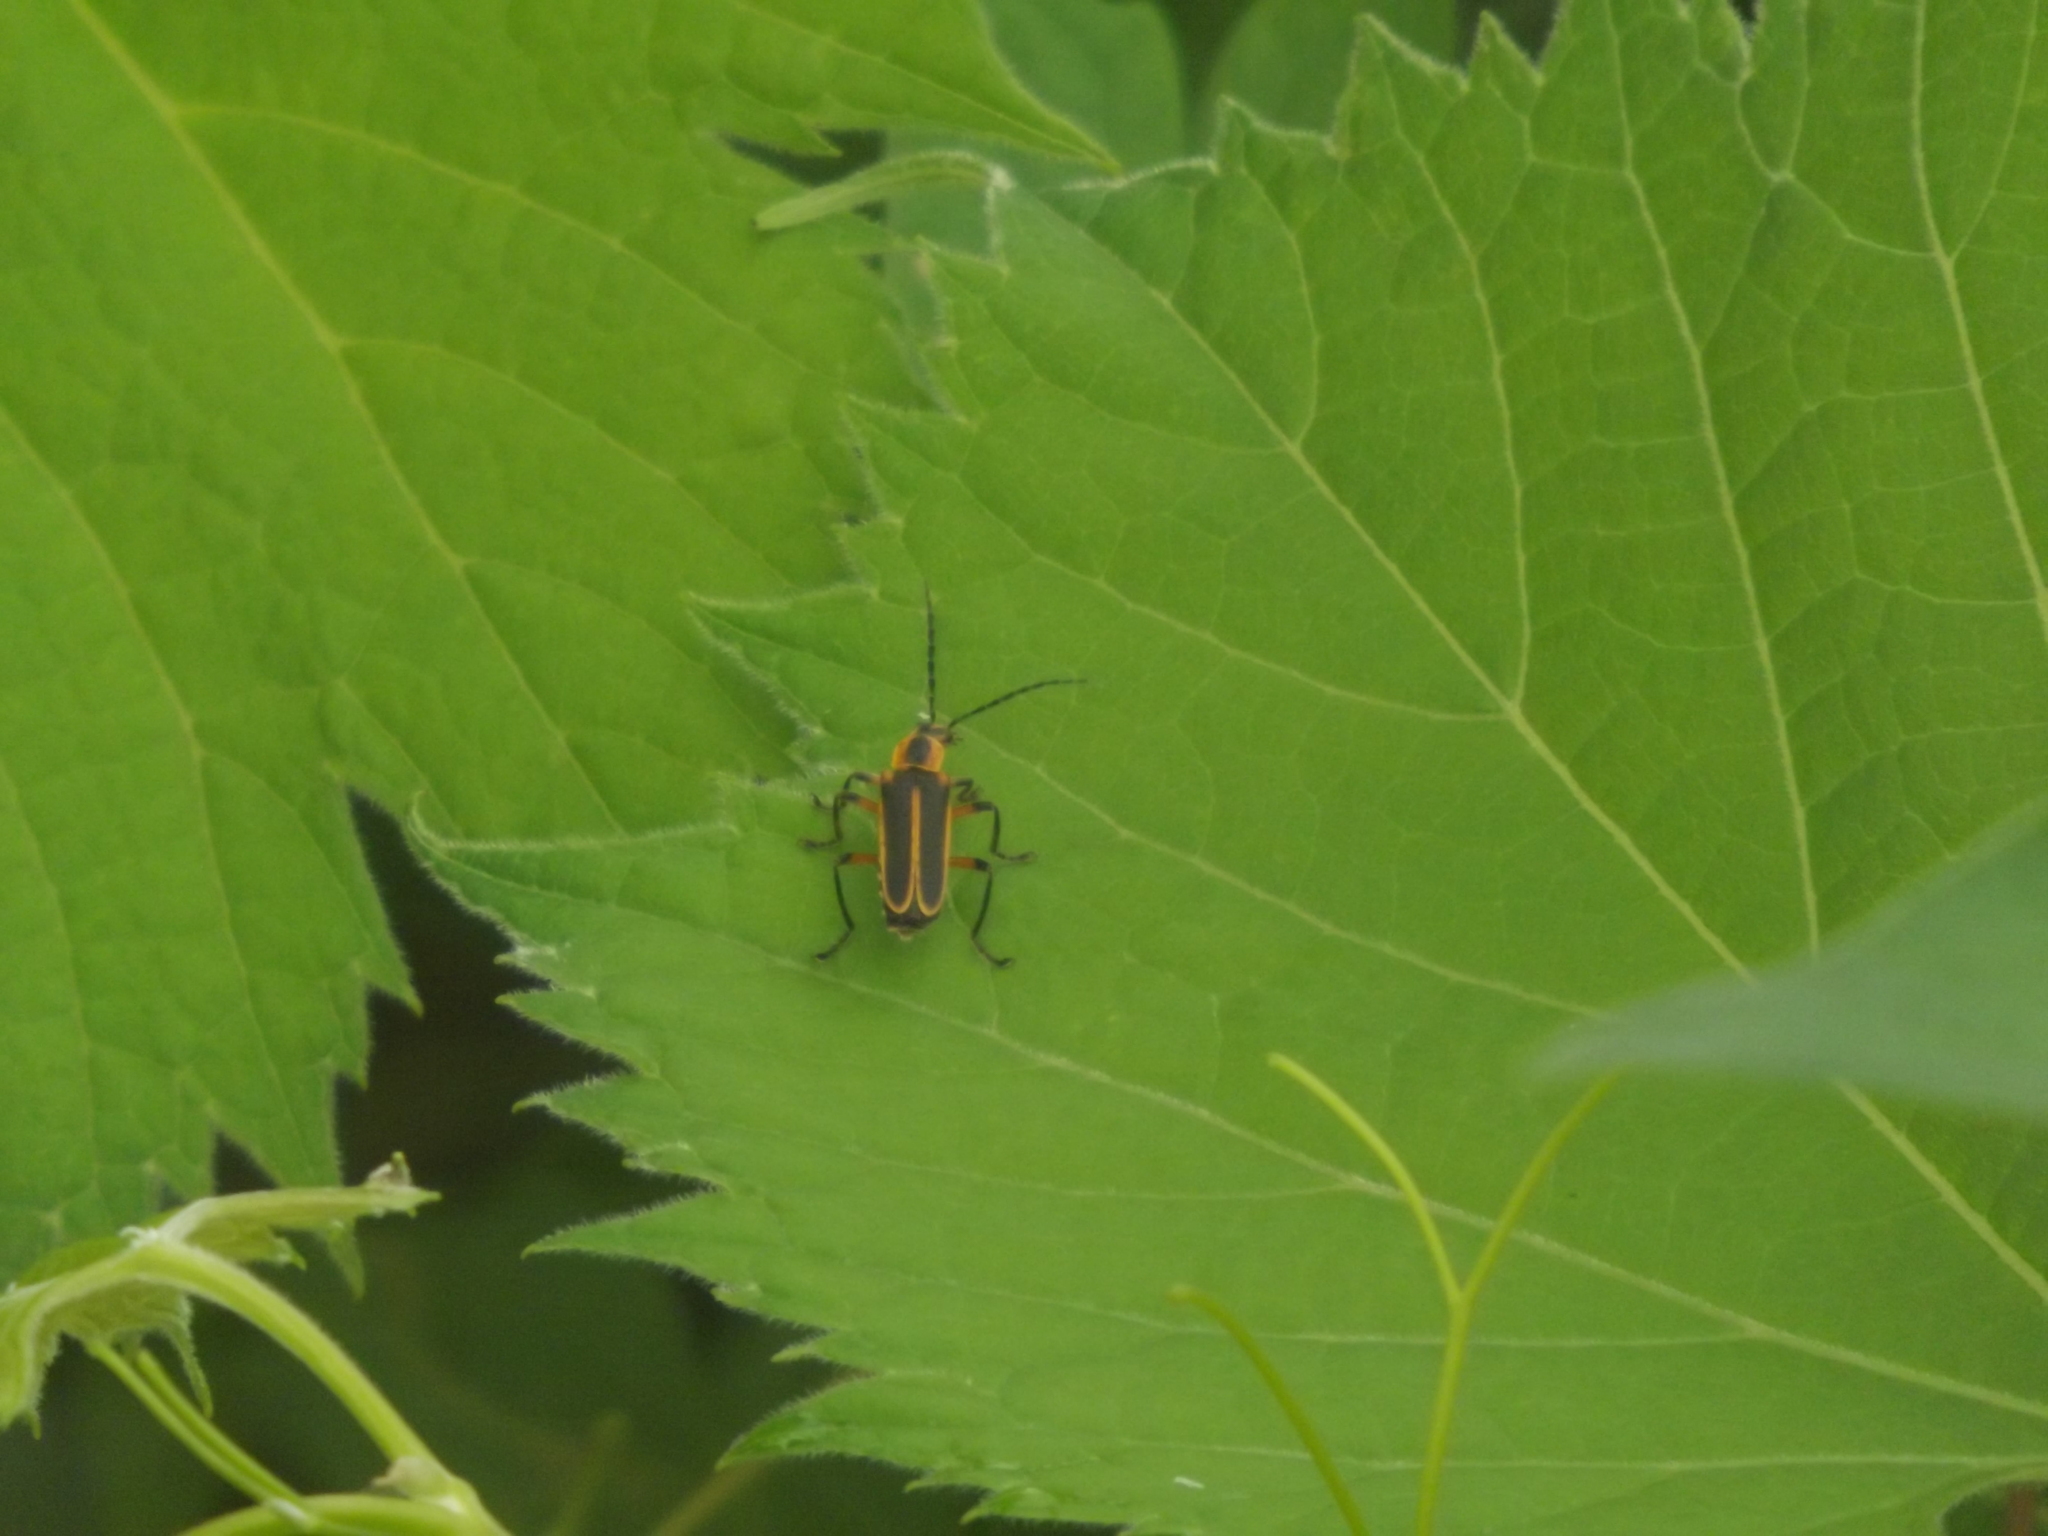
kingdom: Animalia
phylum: Arthropoda
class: Insecta
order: Coleoptera
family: Cantharidae
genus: Chauliognathus
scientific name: Chauliognathus marginatus
